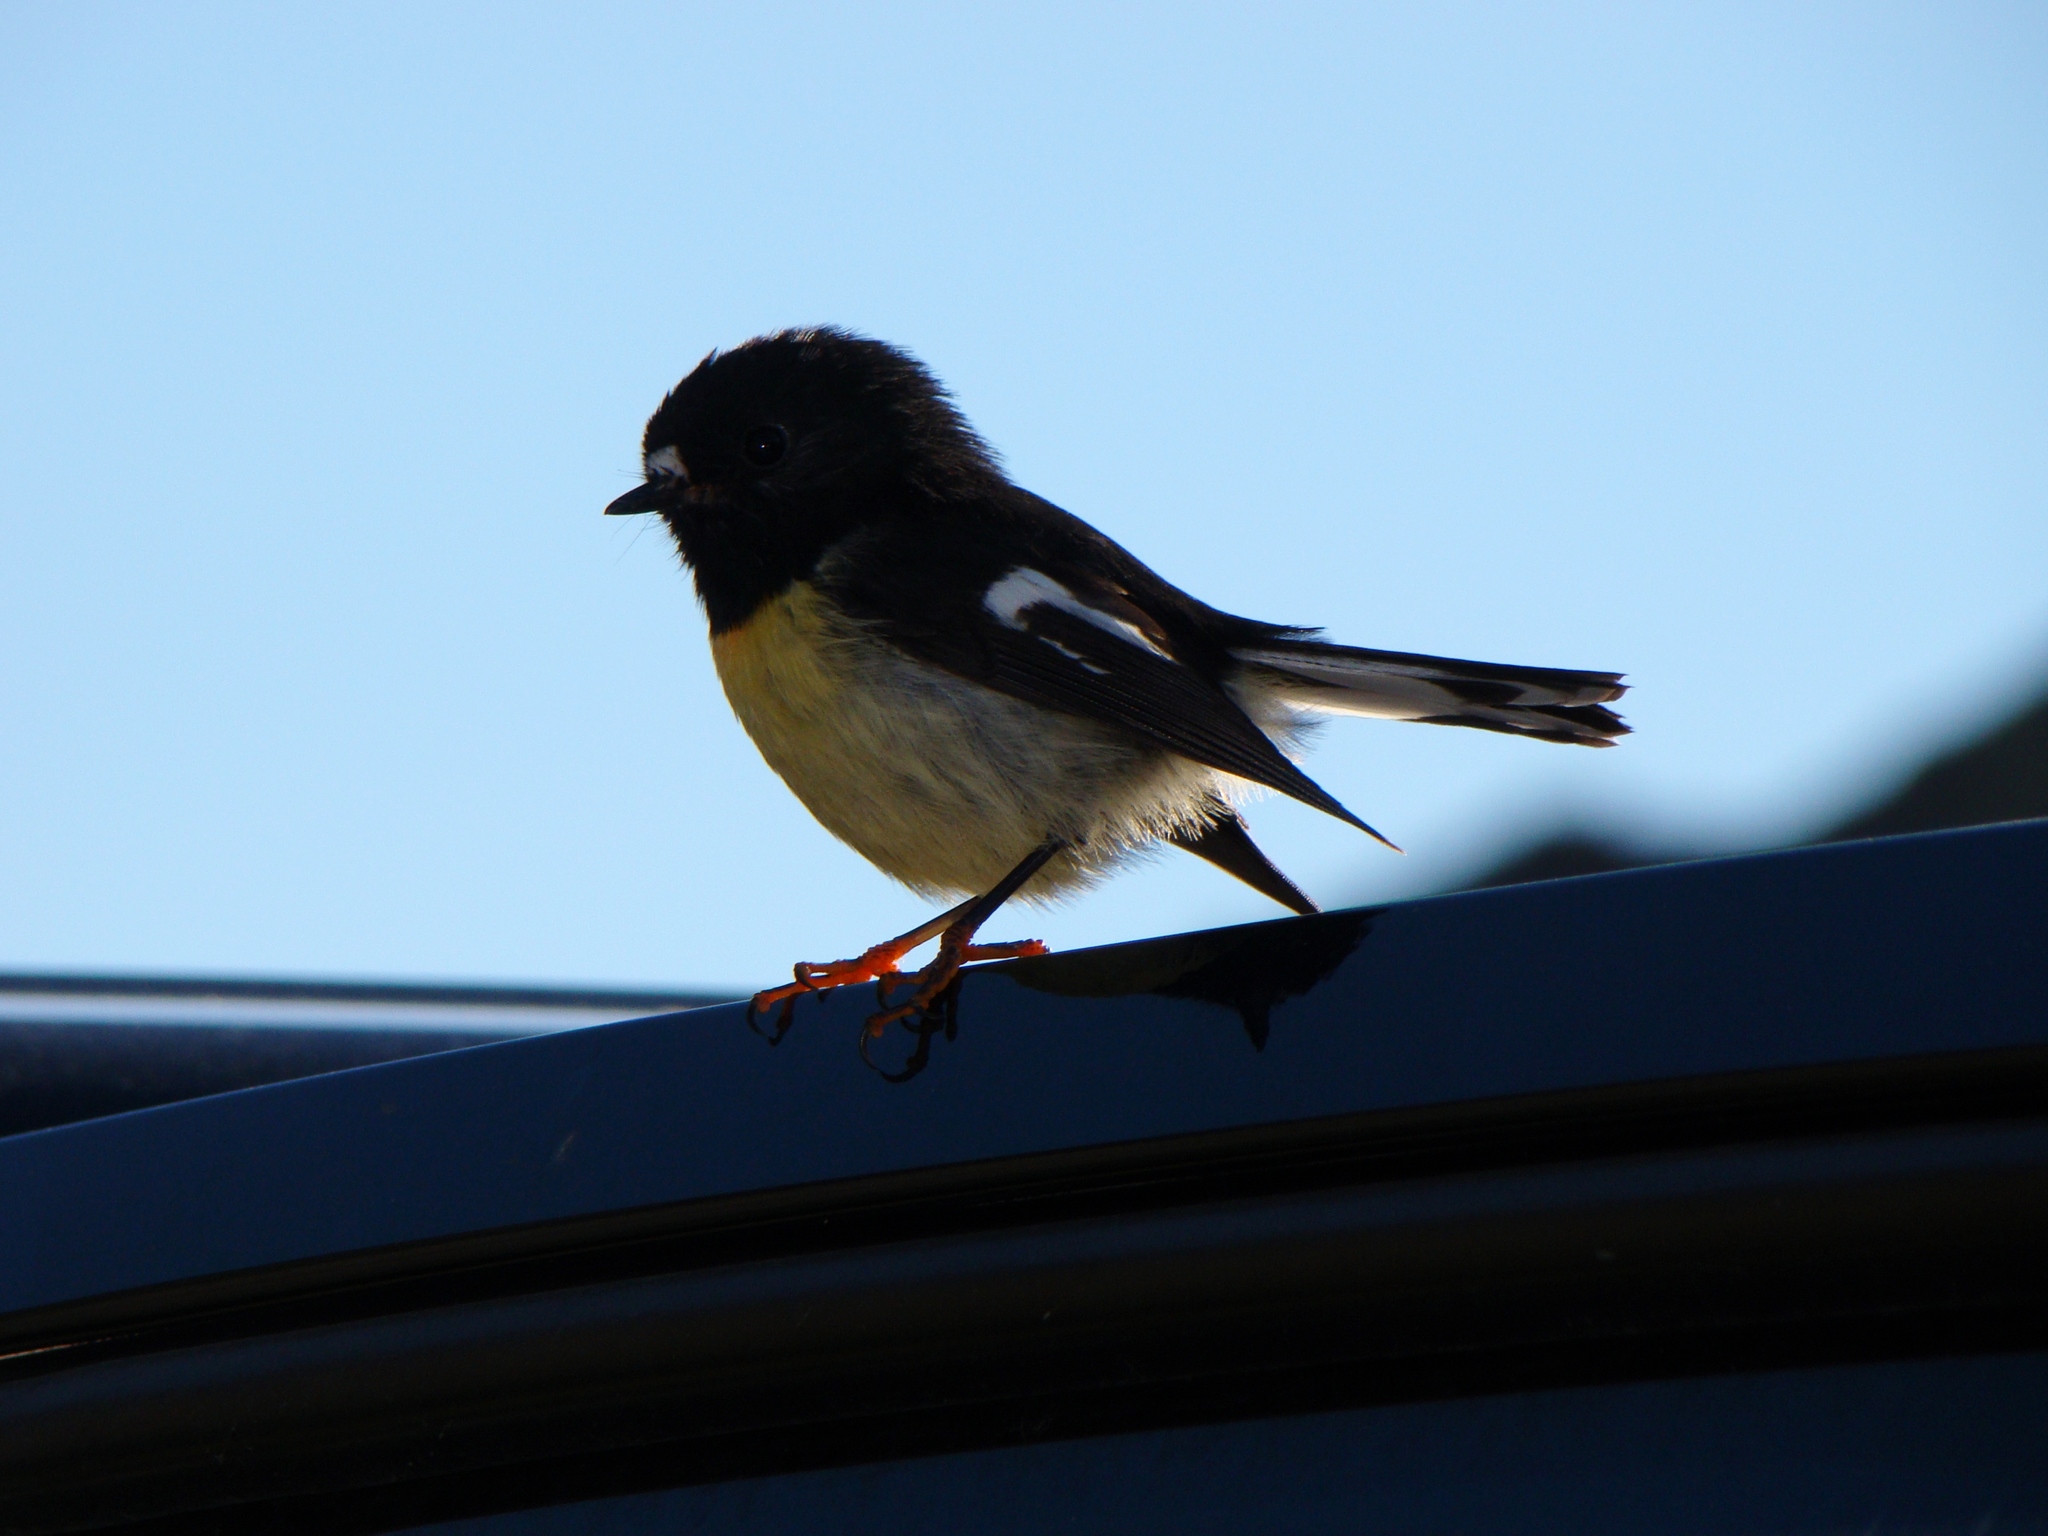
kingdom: Animalia
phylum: Chordata
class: Aves
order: Passeriformes
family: Petroicidae
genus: Petroica
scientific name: Petroica macrocephala
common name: Tomtit
